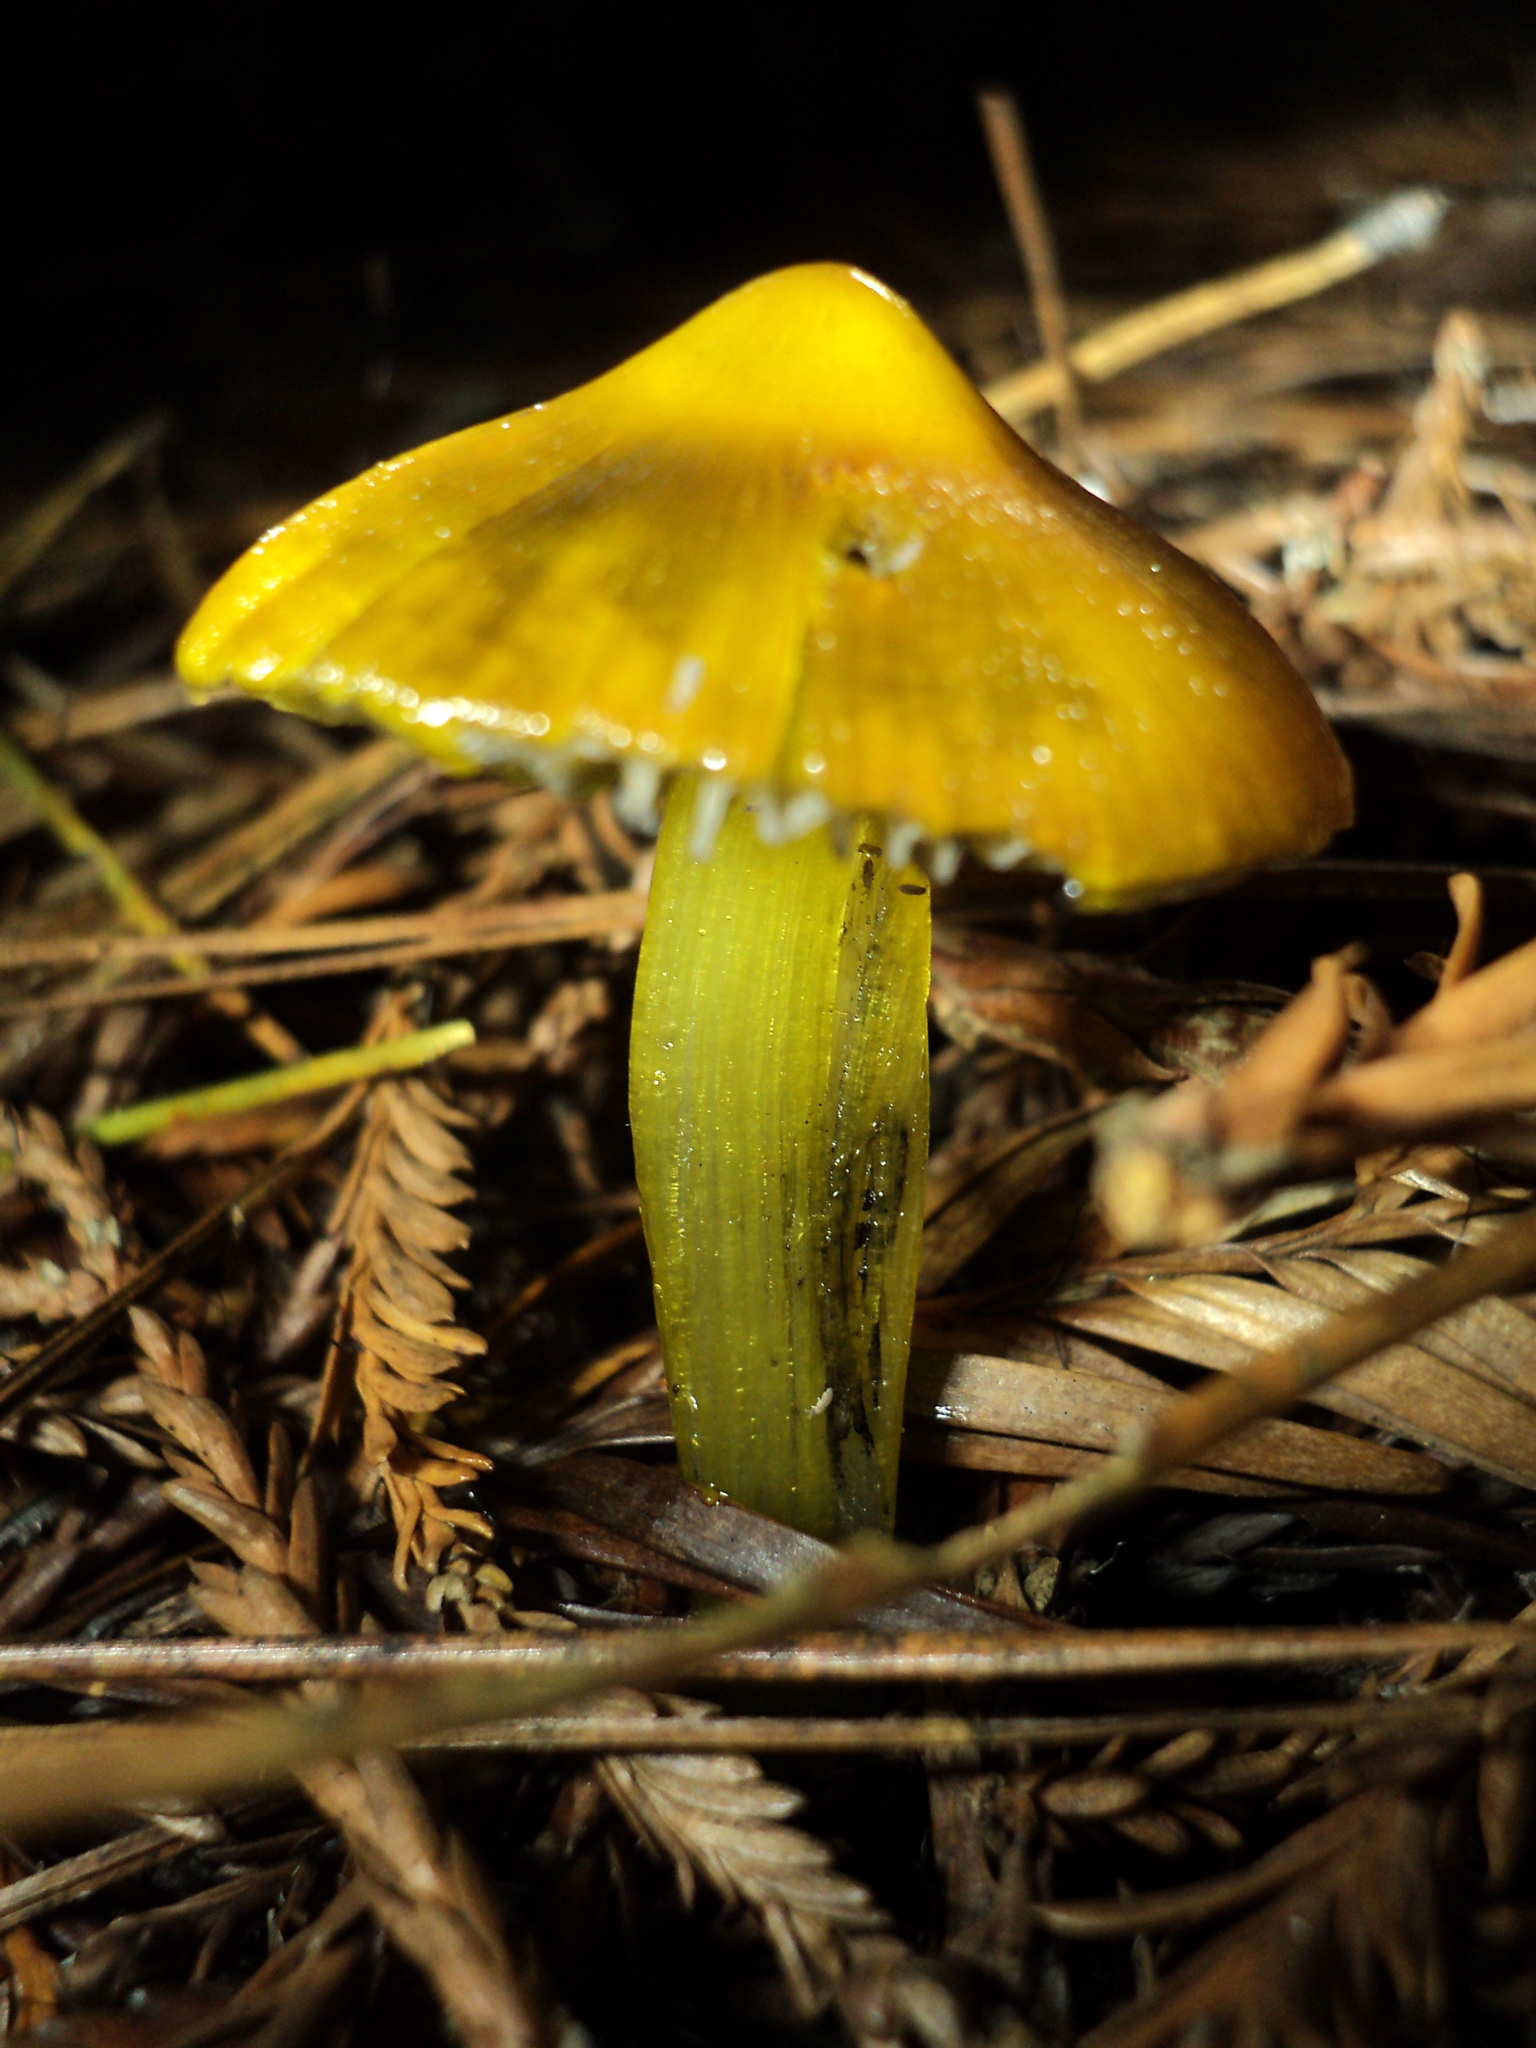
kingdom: Fungi
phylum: Basidiomycota
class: Agaricomycetes
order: Agaricales
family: Hygrophoraceae
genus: Hygrocybe
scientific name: Hygrocybe singeri
